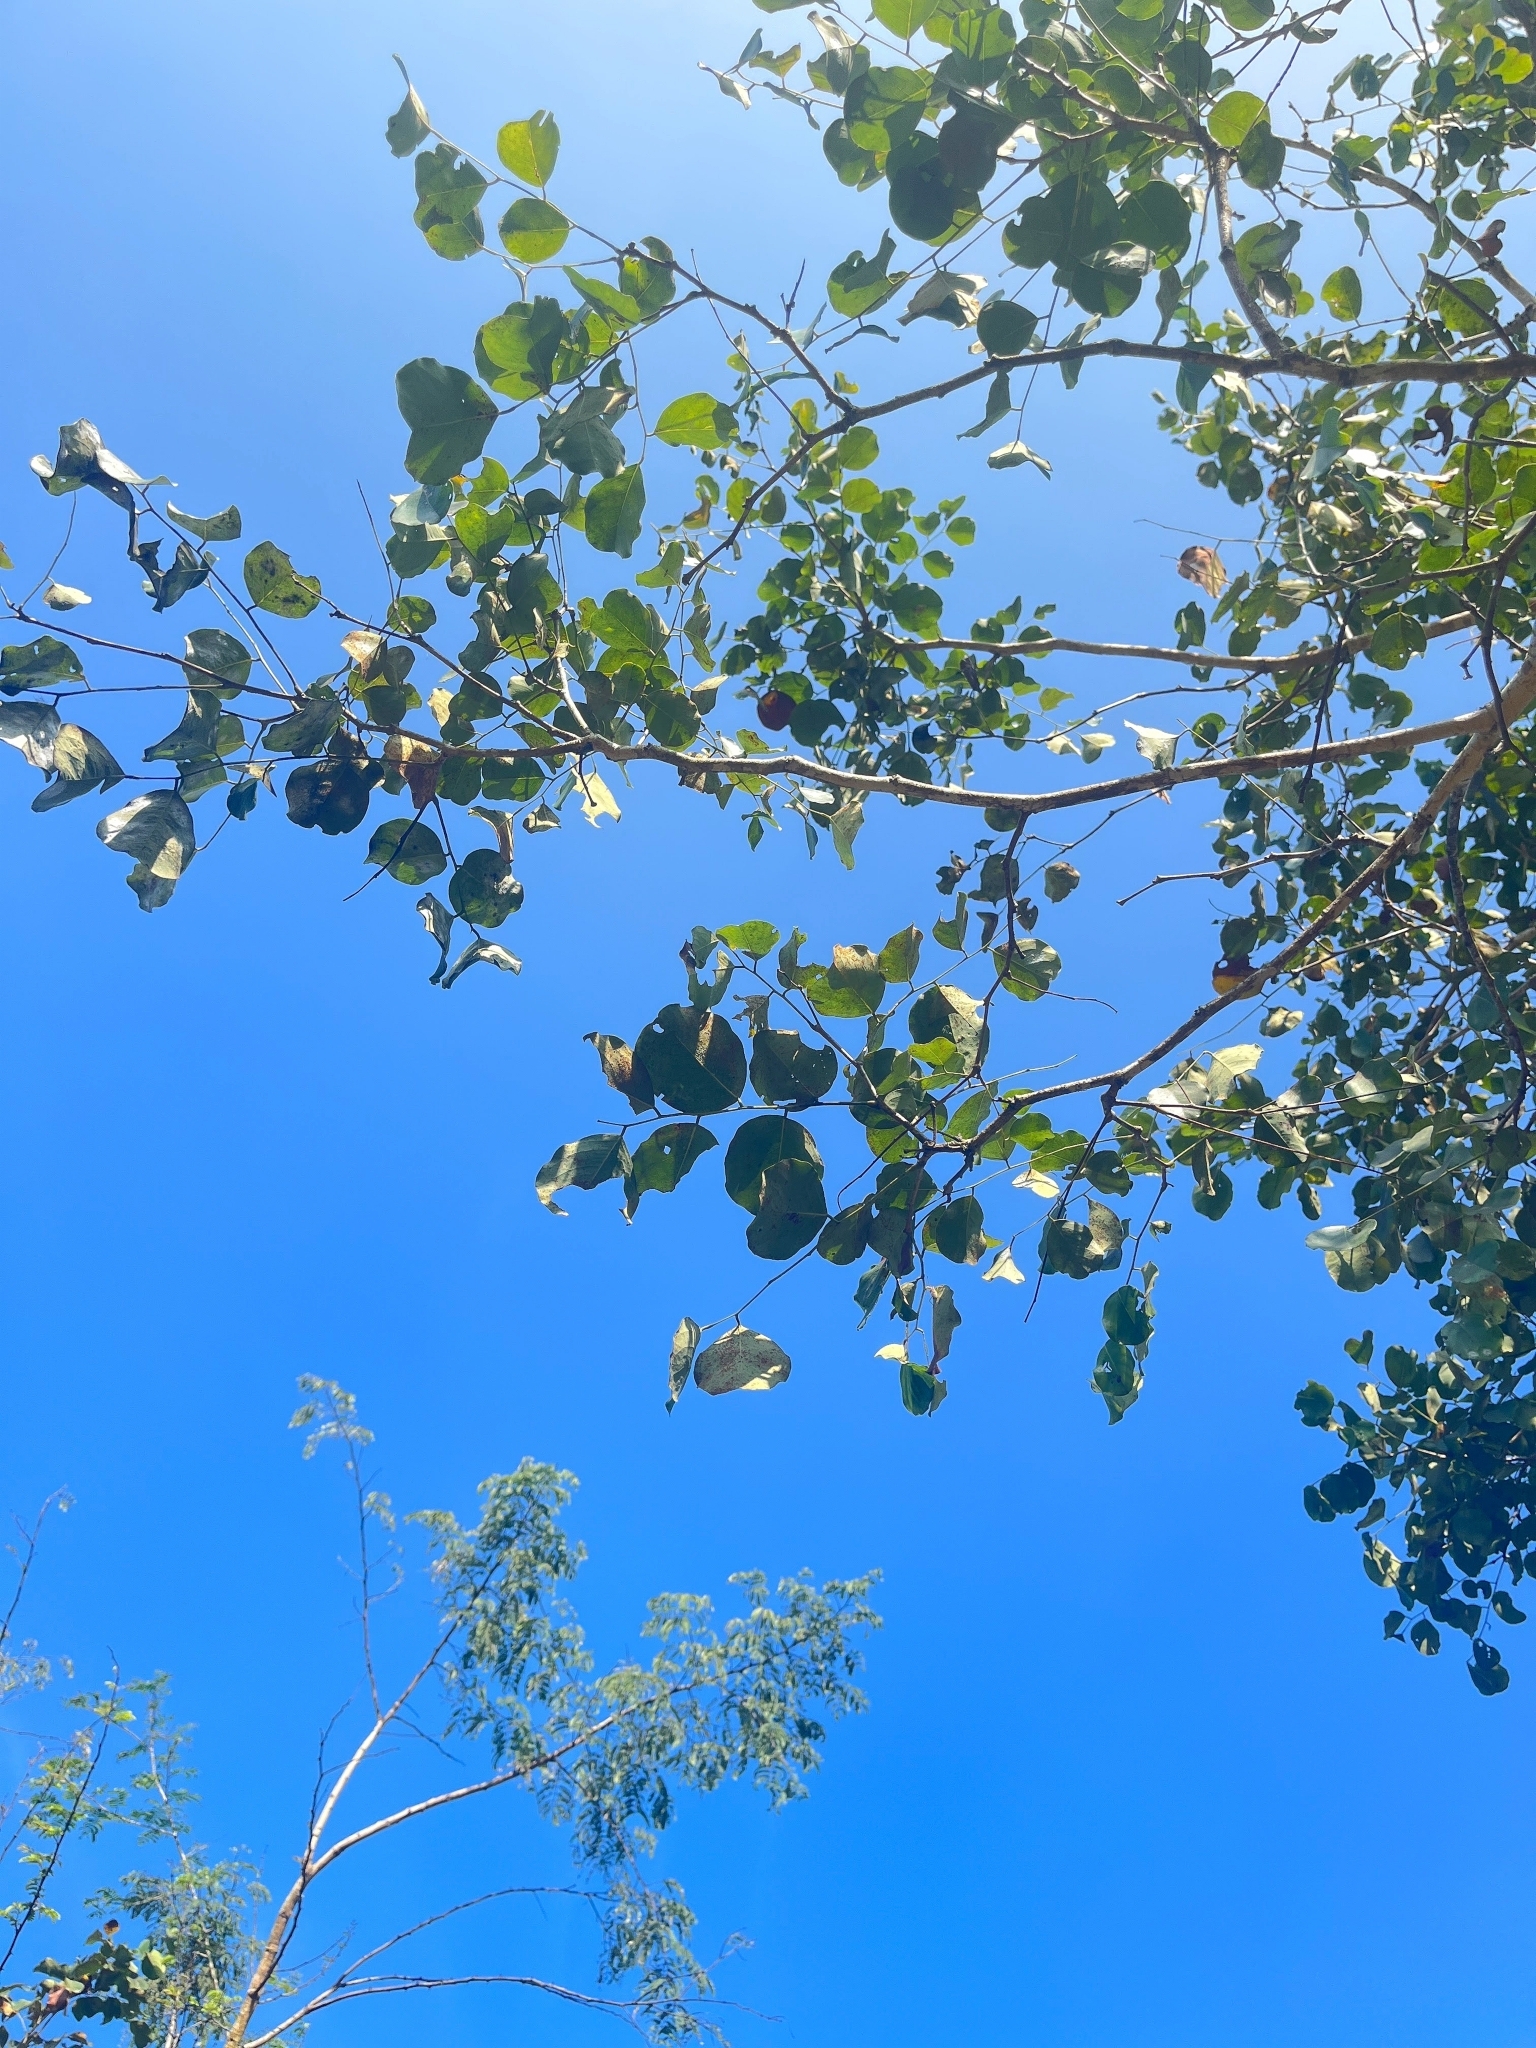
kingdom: Plantae
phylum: Tracheophyta
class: Magnoliopsida
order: Fabales
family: Fabaceae
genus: Dalbergia
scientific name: Dalbergia latifolia
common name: Bombay blackwood
